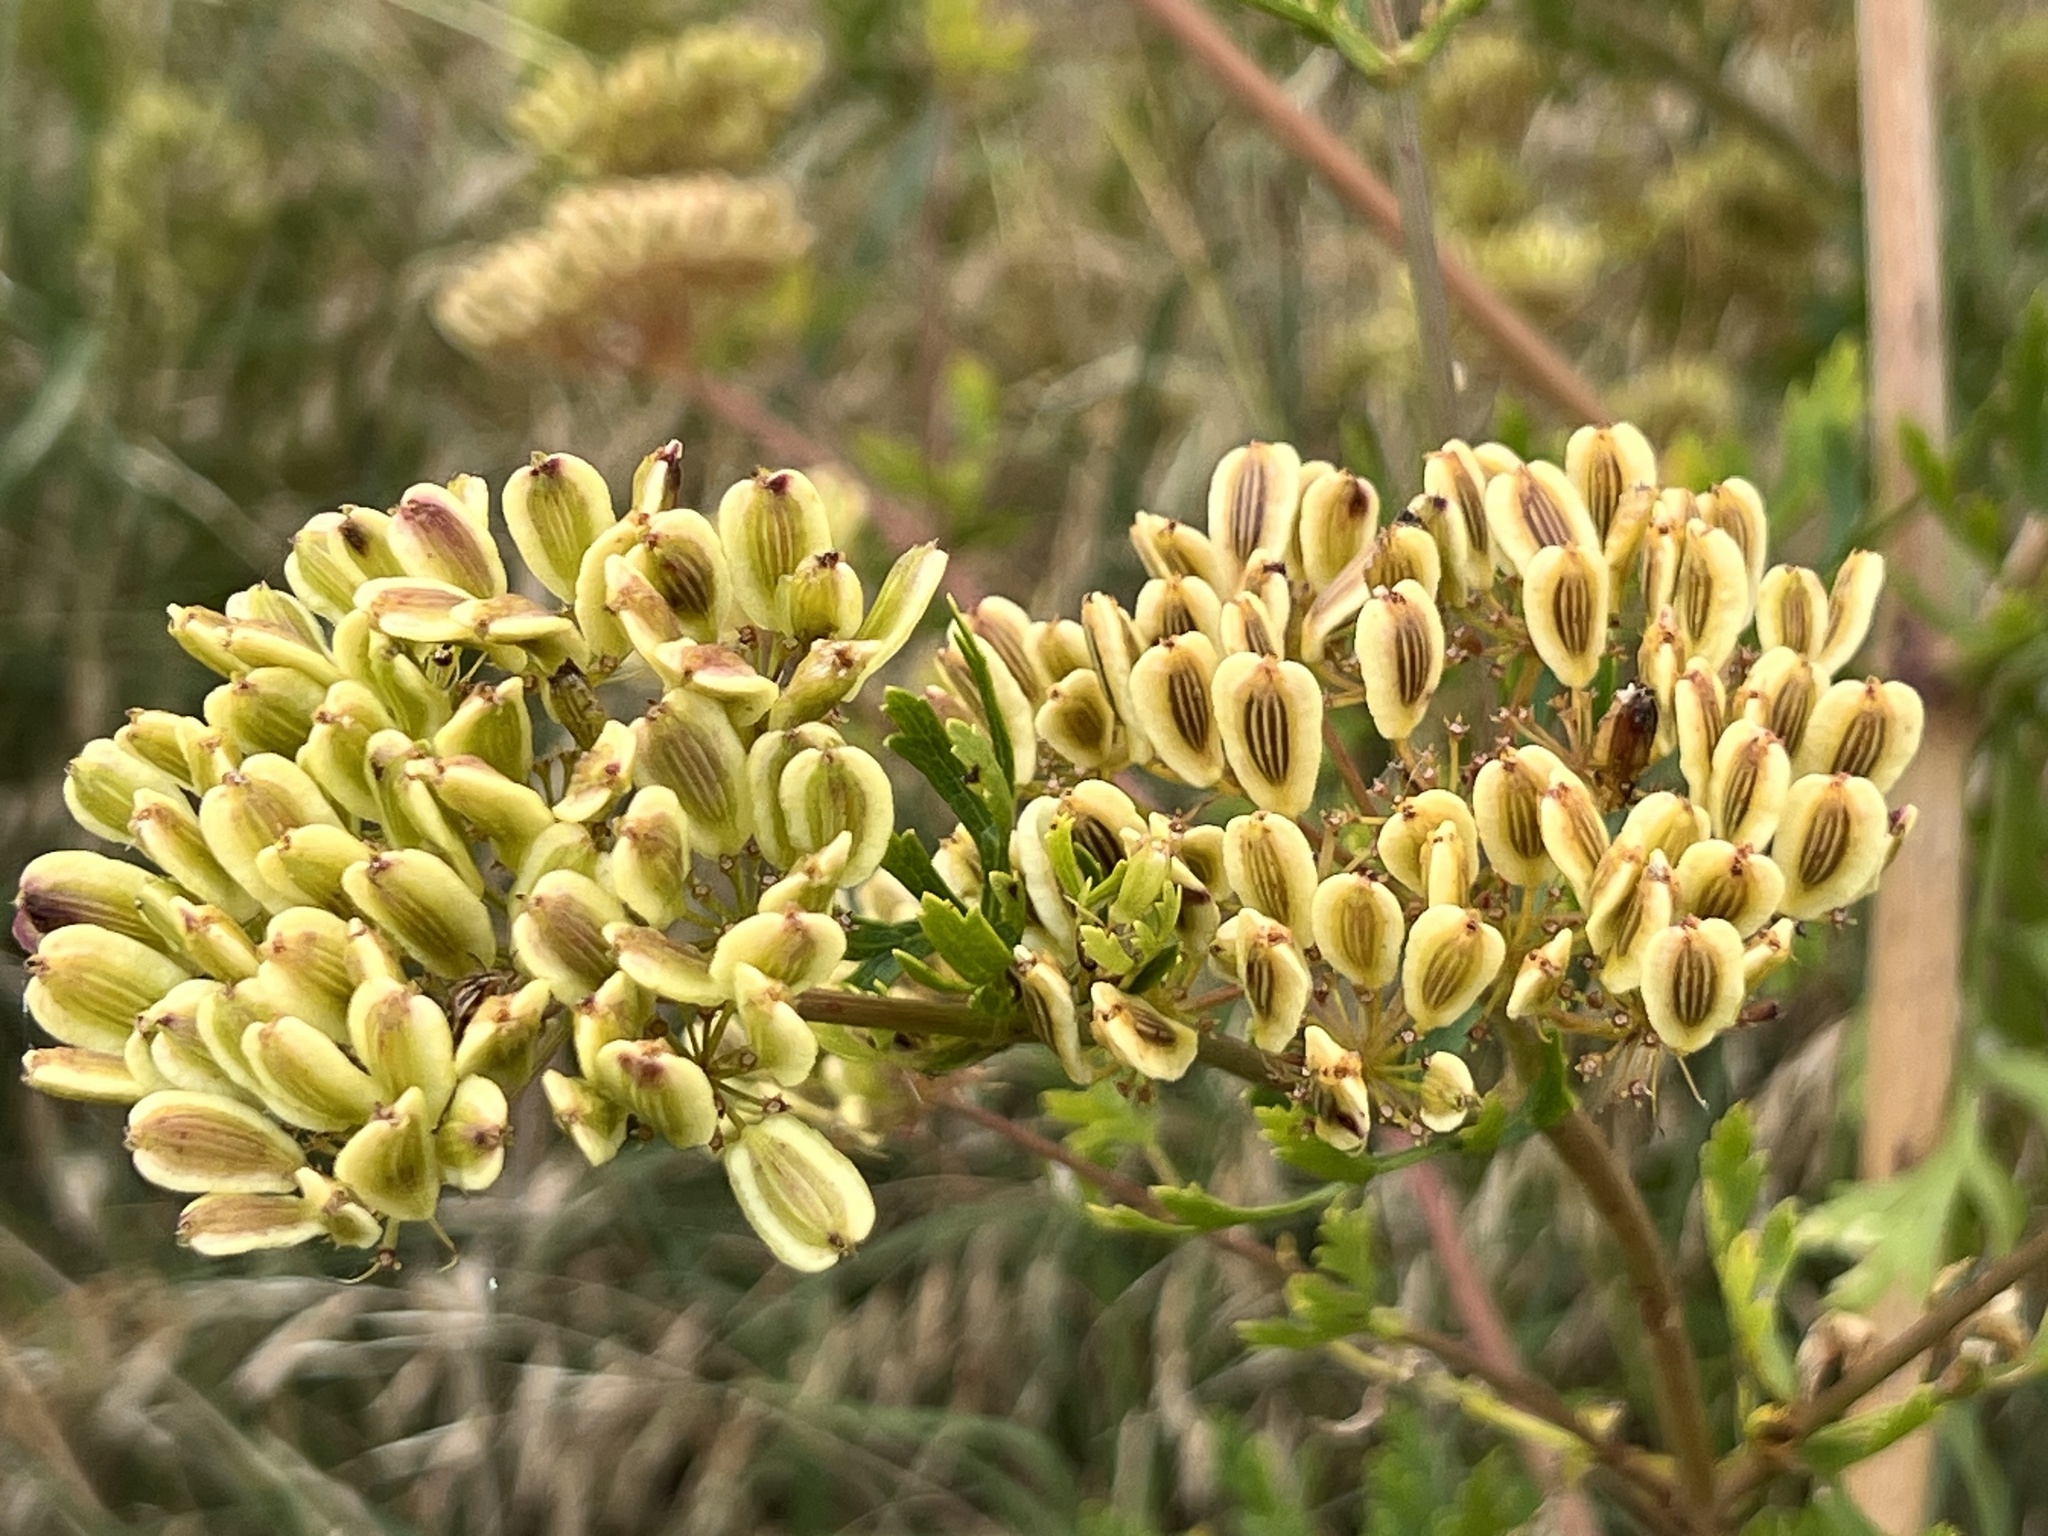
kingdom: Plantae
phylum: Tracheophyta
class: Magnoliopsida
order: Apiales
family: Apiaceae
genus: Polytaenia
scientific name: Polytaenia texana
